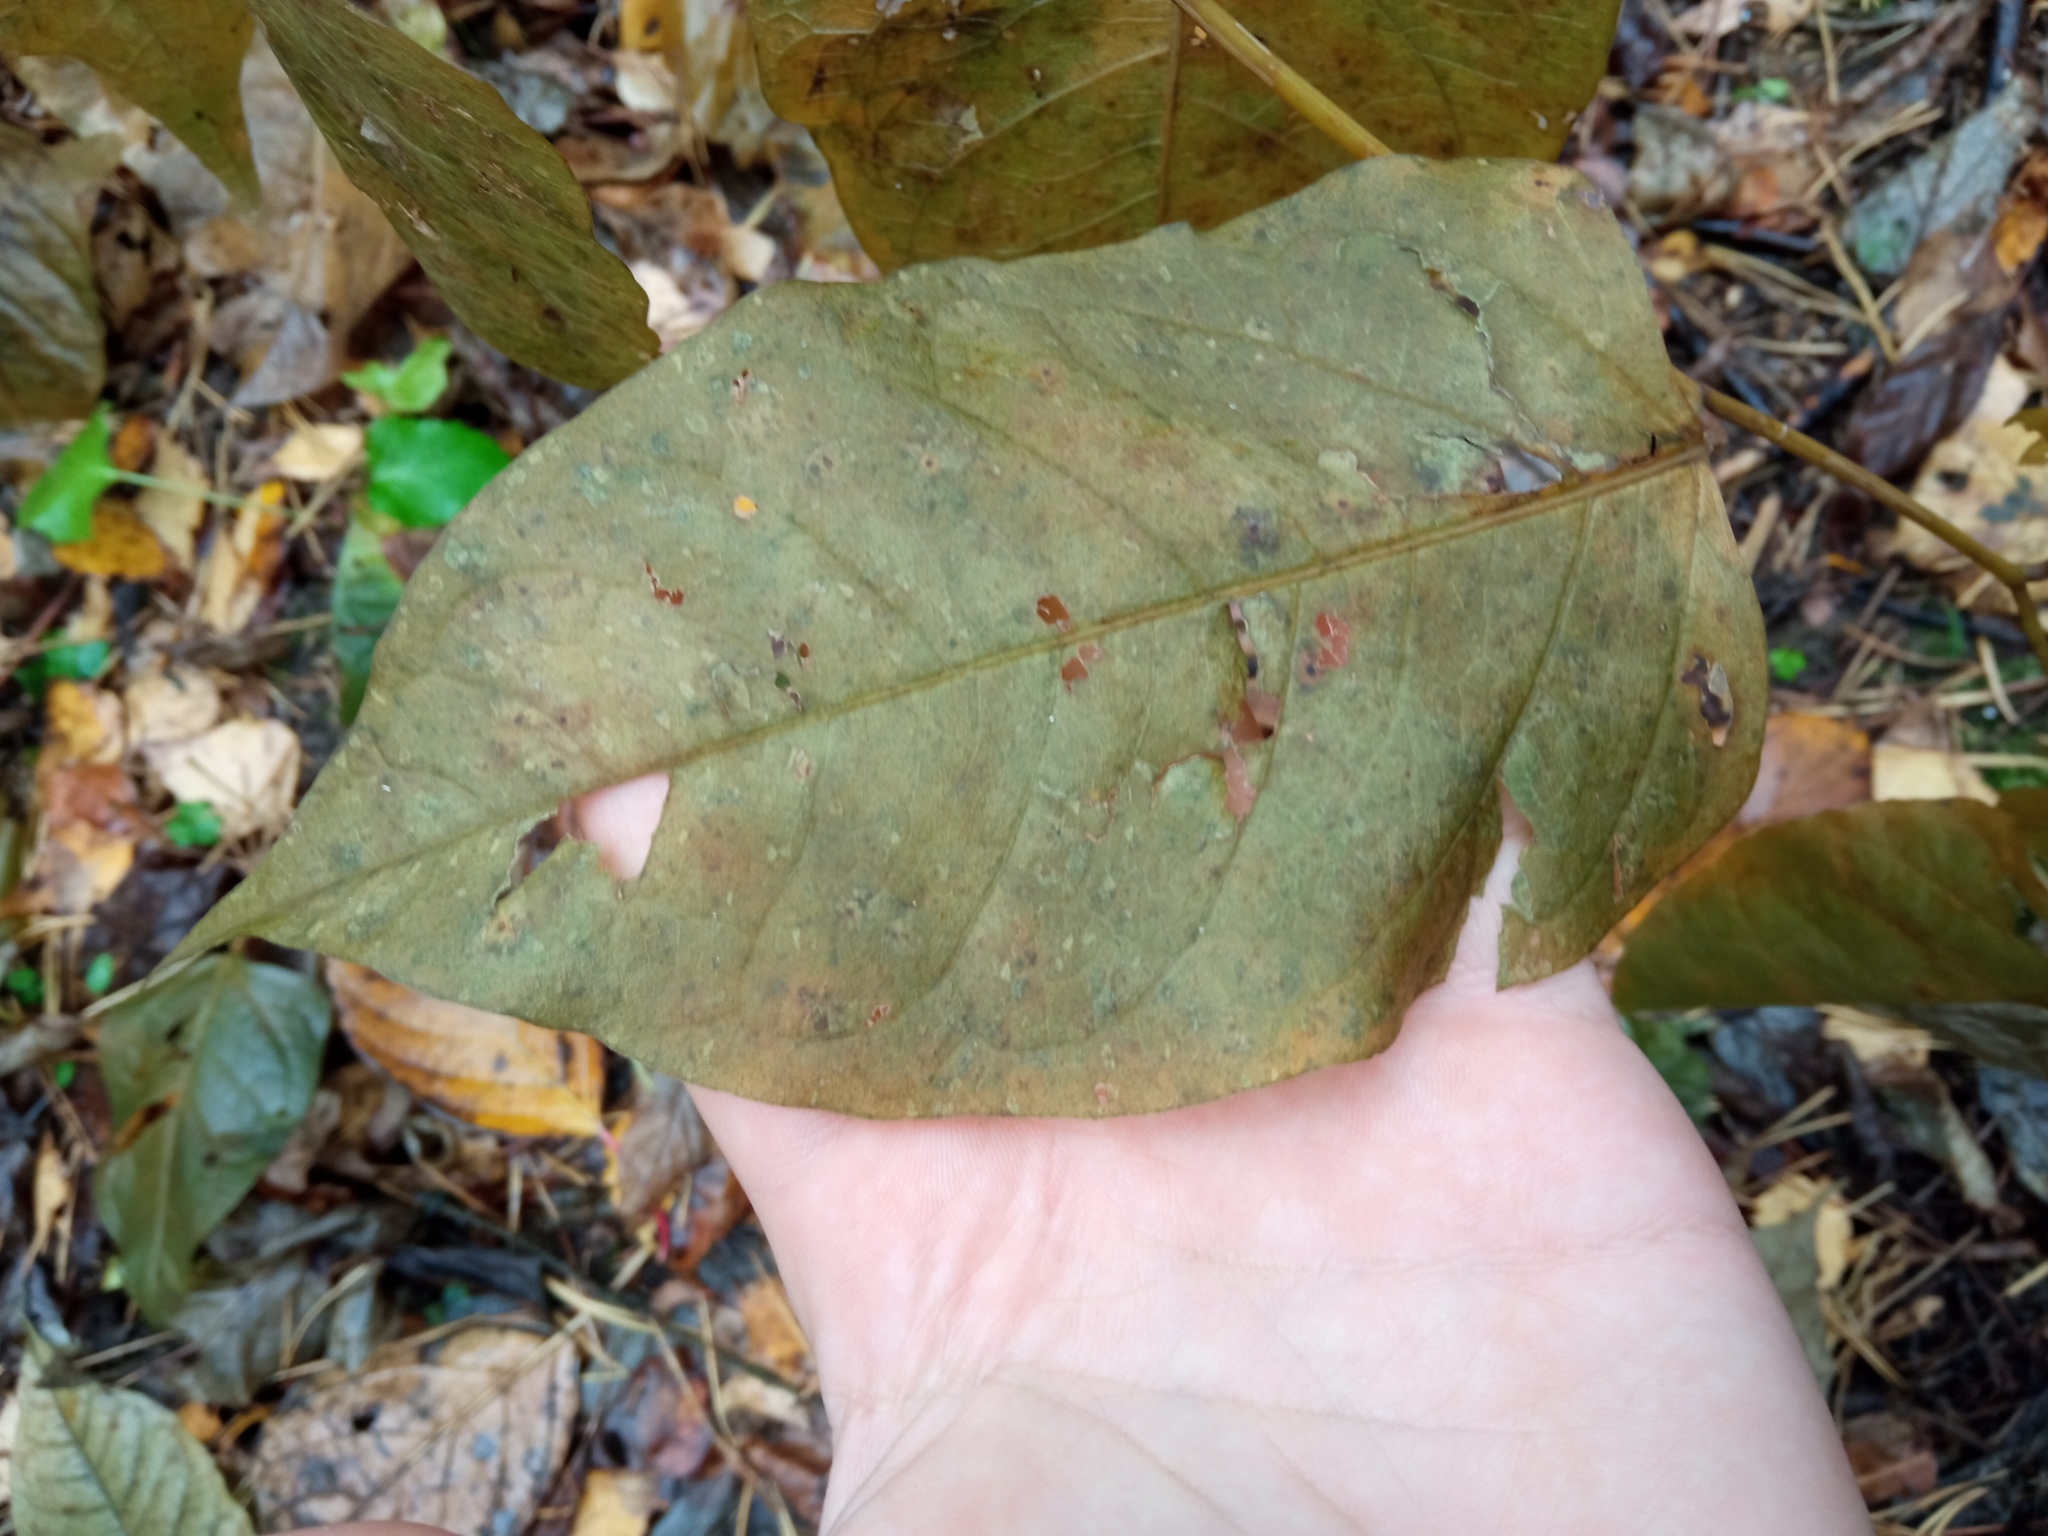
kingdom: Plantae
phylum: Tracheophyta
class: Magnoliopsida
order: Caryophyllales
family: Polygonaceae
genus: Reynoutria
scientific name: Reynoutria bohemica
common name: Bohemian knotweed
